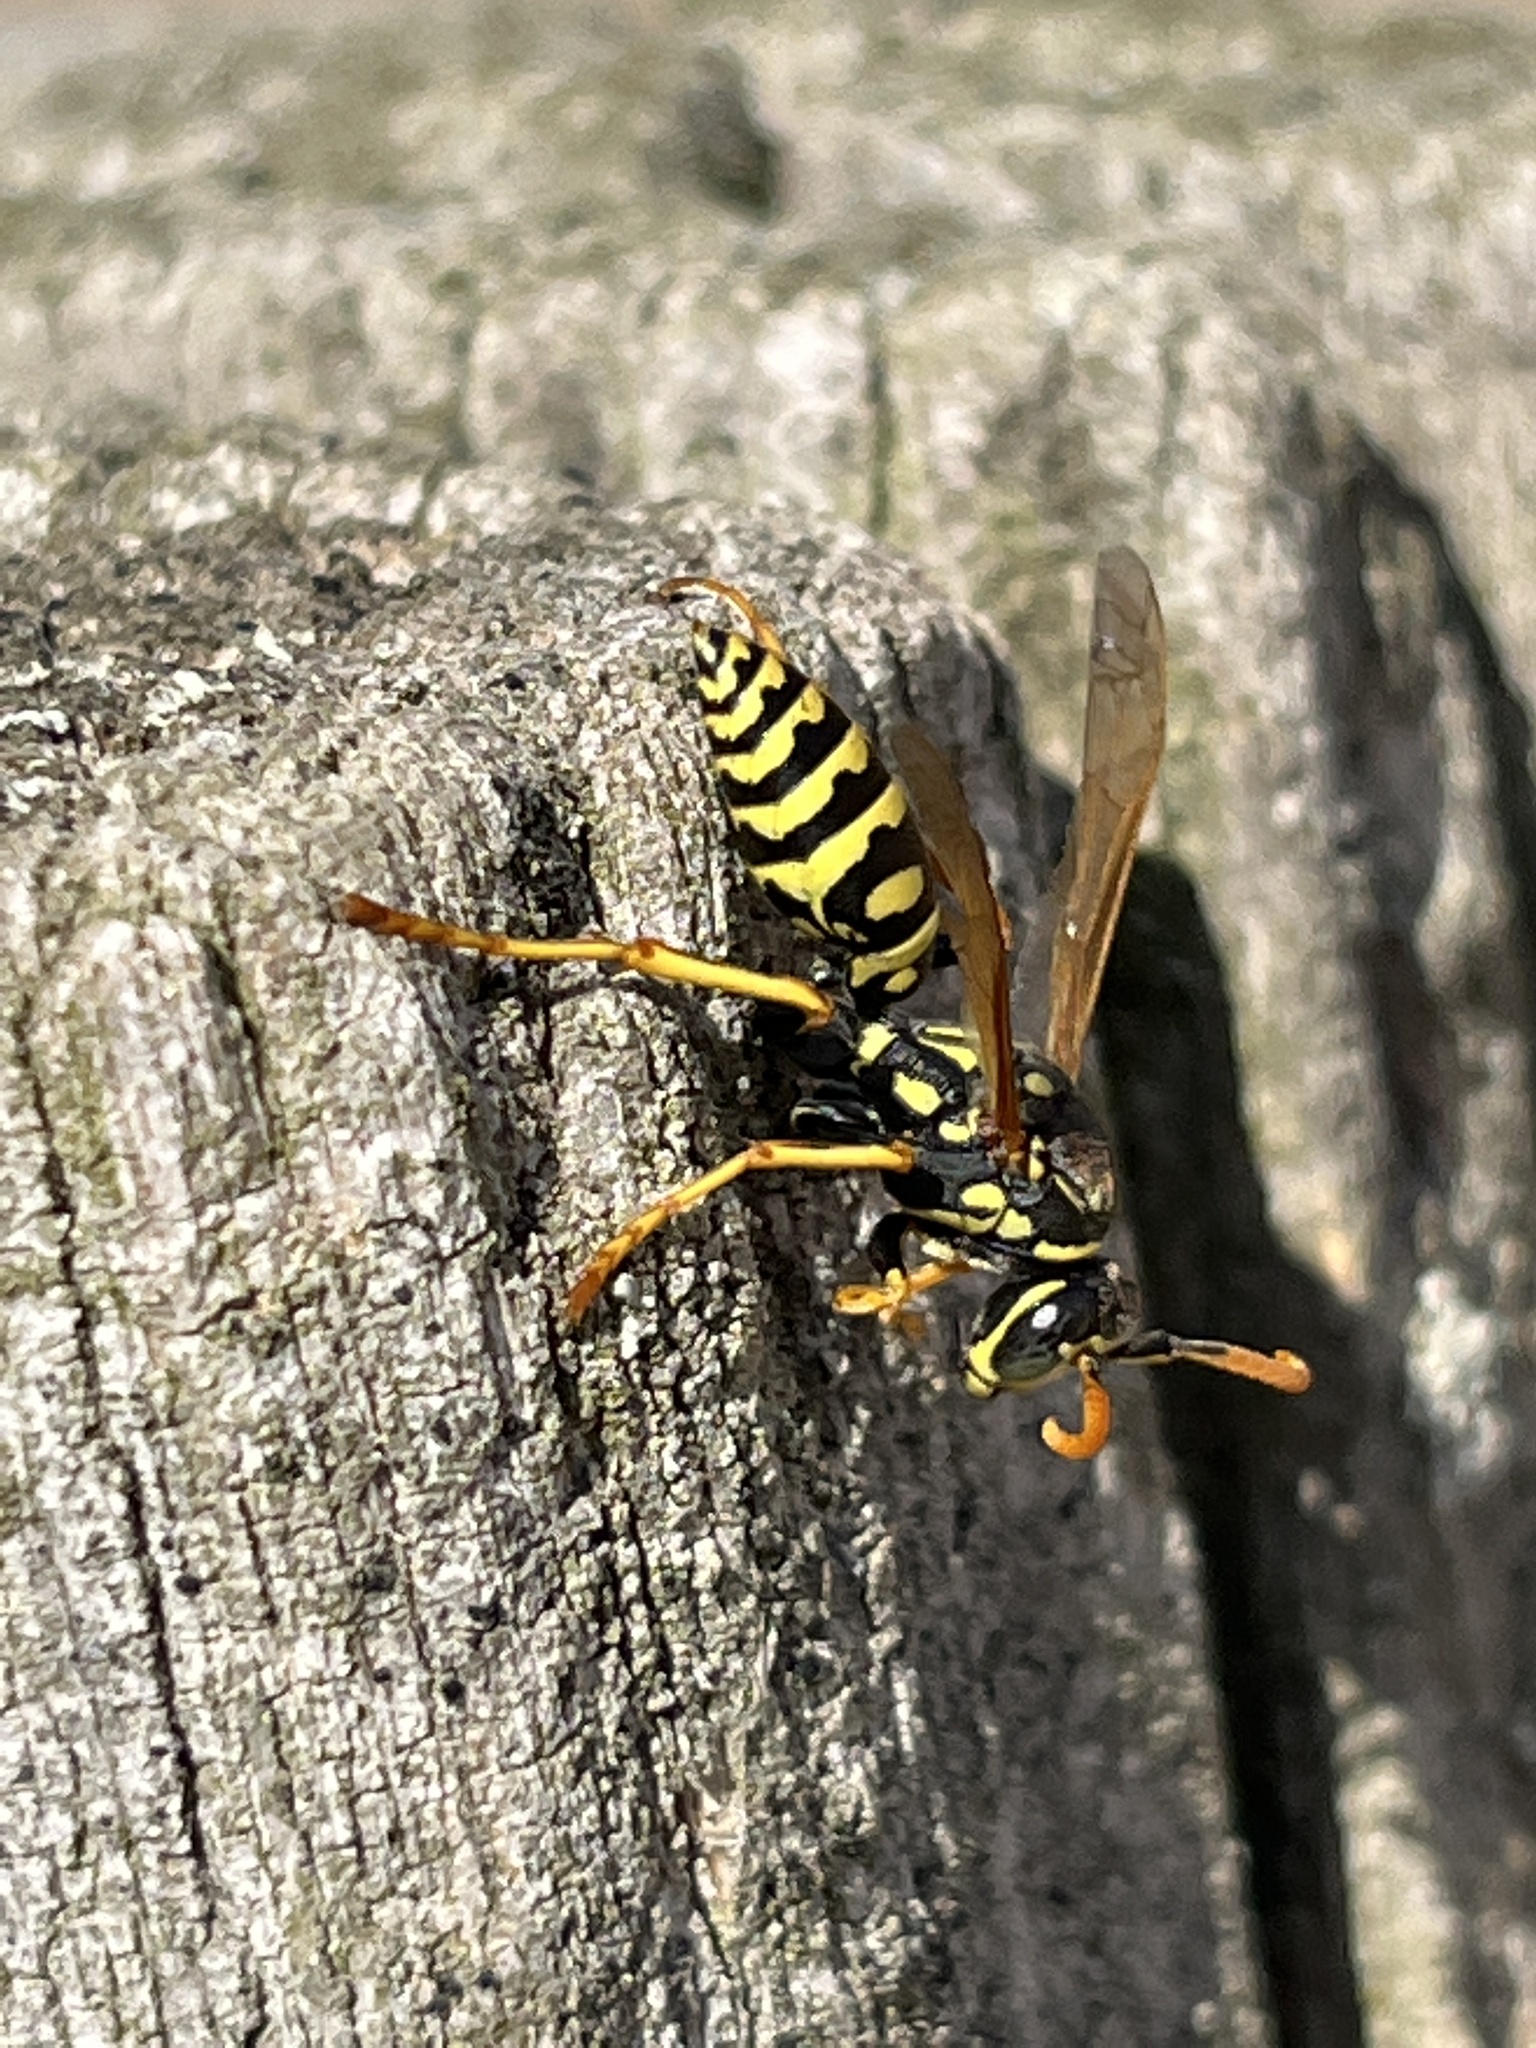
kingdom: Animalia
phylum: Arthropoda
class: Insecta
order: Hymenoptera
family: Eumenidae
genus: Polistes
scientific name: Polistes dominula
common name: Paper wasp
